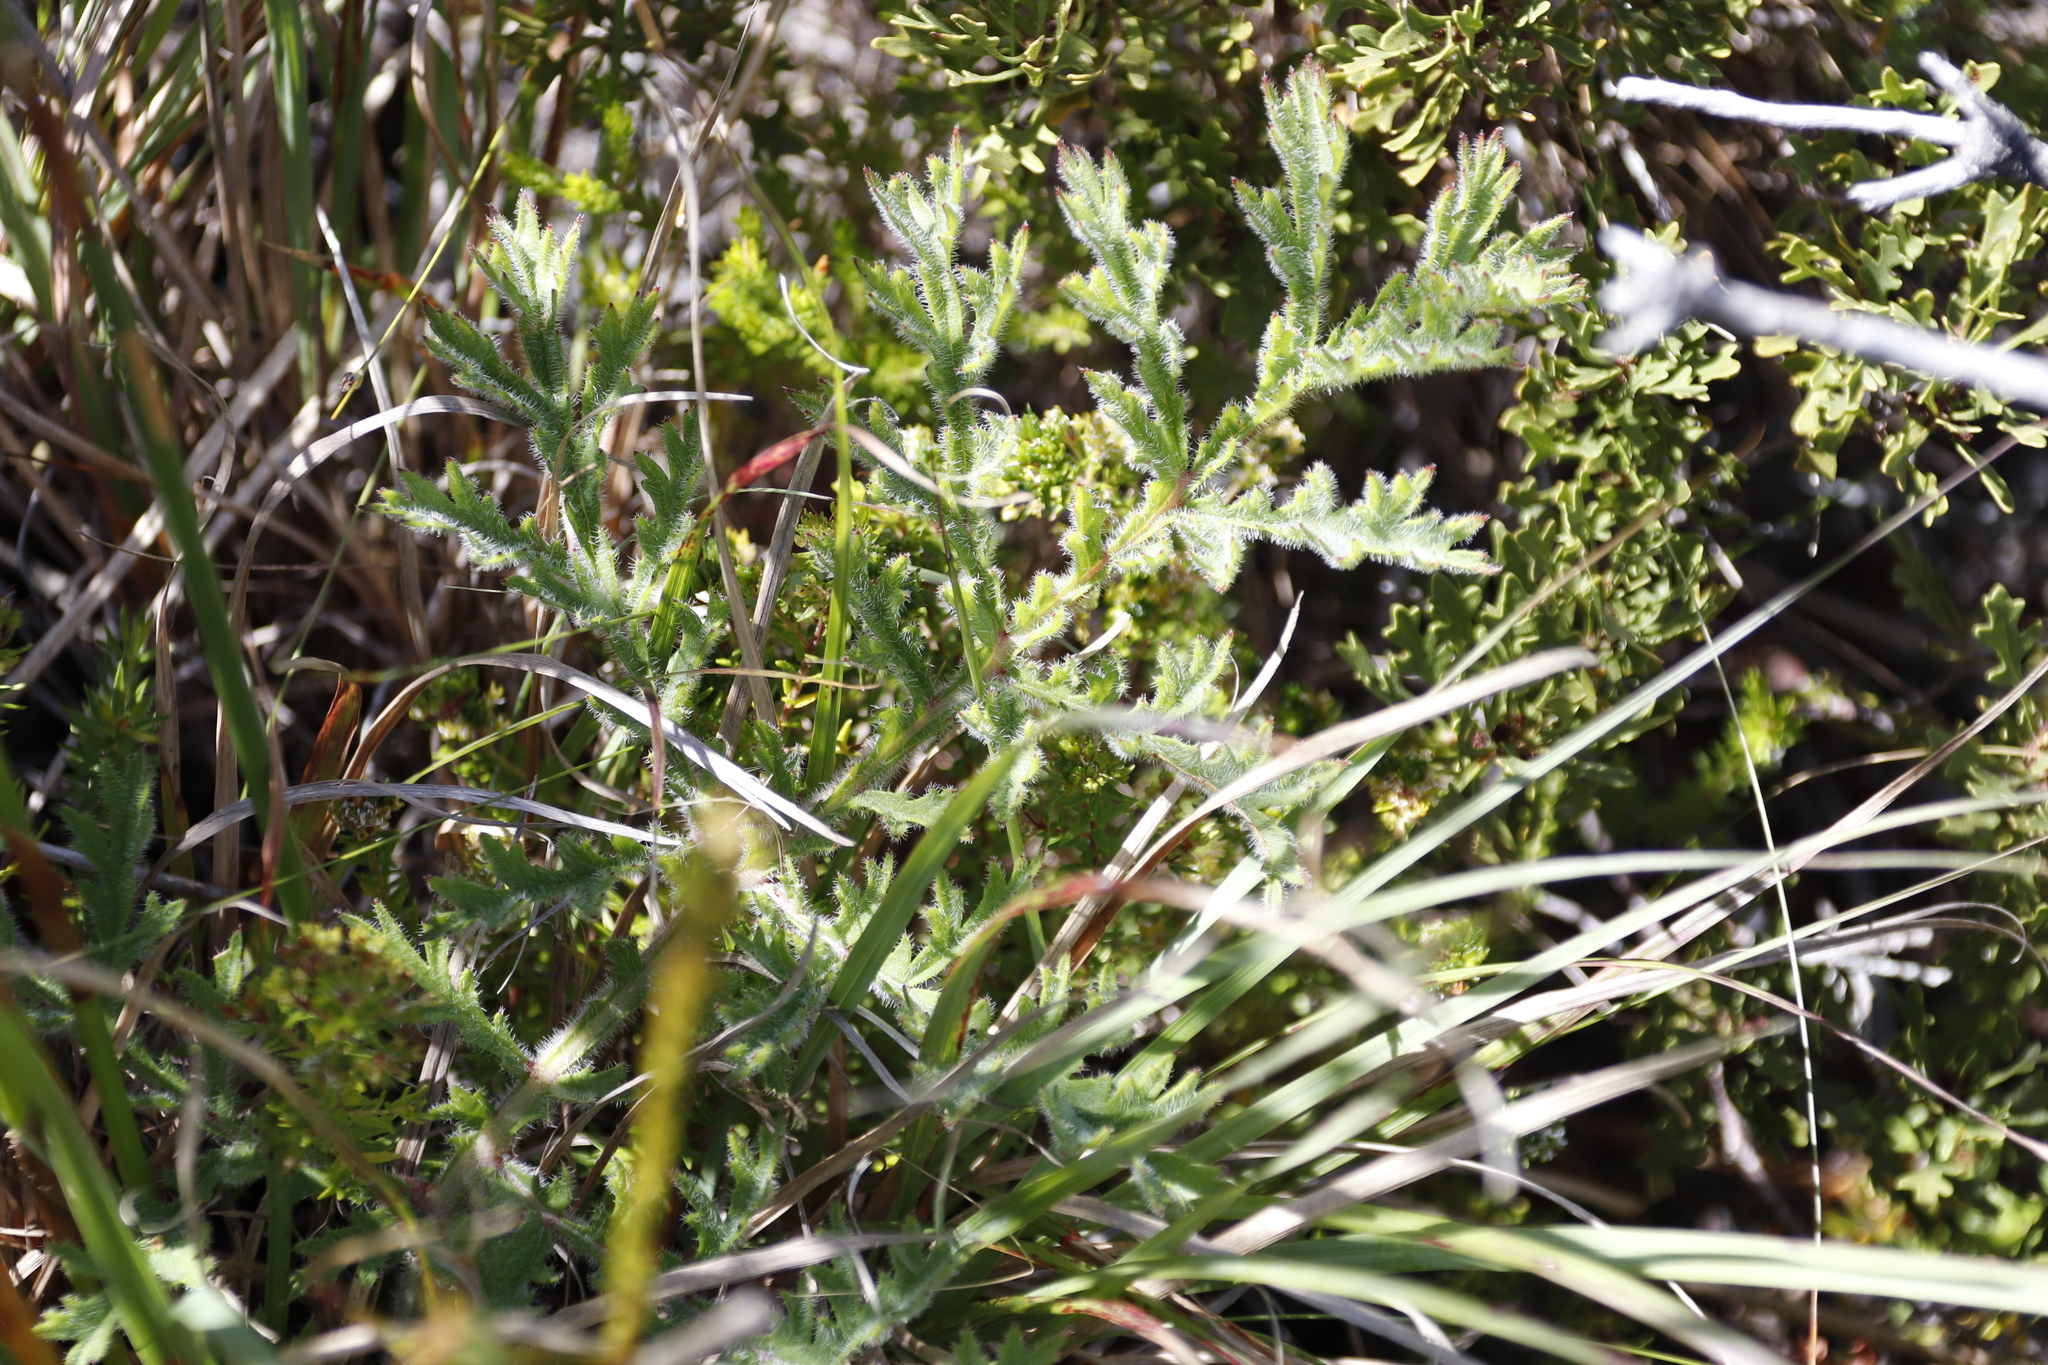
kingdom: Plantae
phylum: Tracheophyta
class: Magnoliopsida
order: Geraniales
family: Geraniaceae
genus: Pelargonium
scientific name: Pelargonium triste
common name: Night-scent pelargonium
